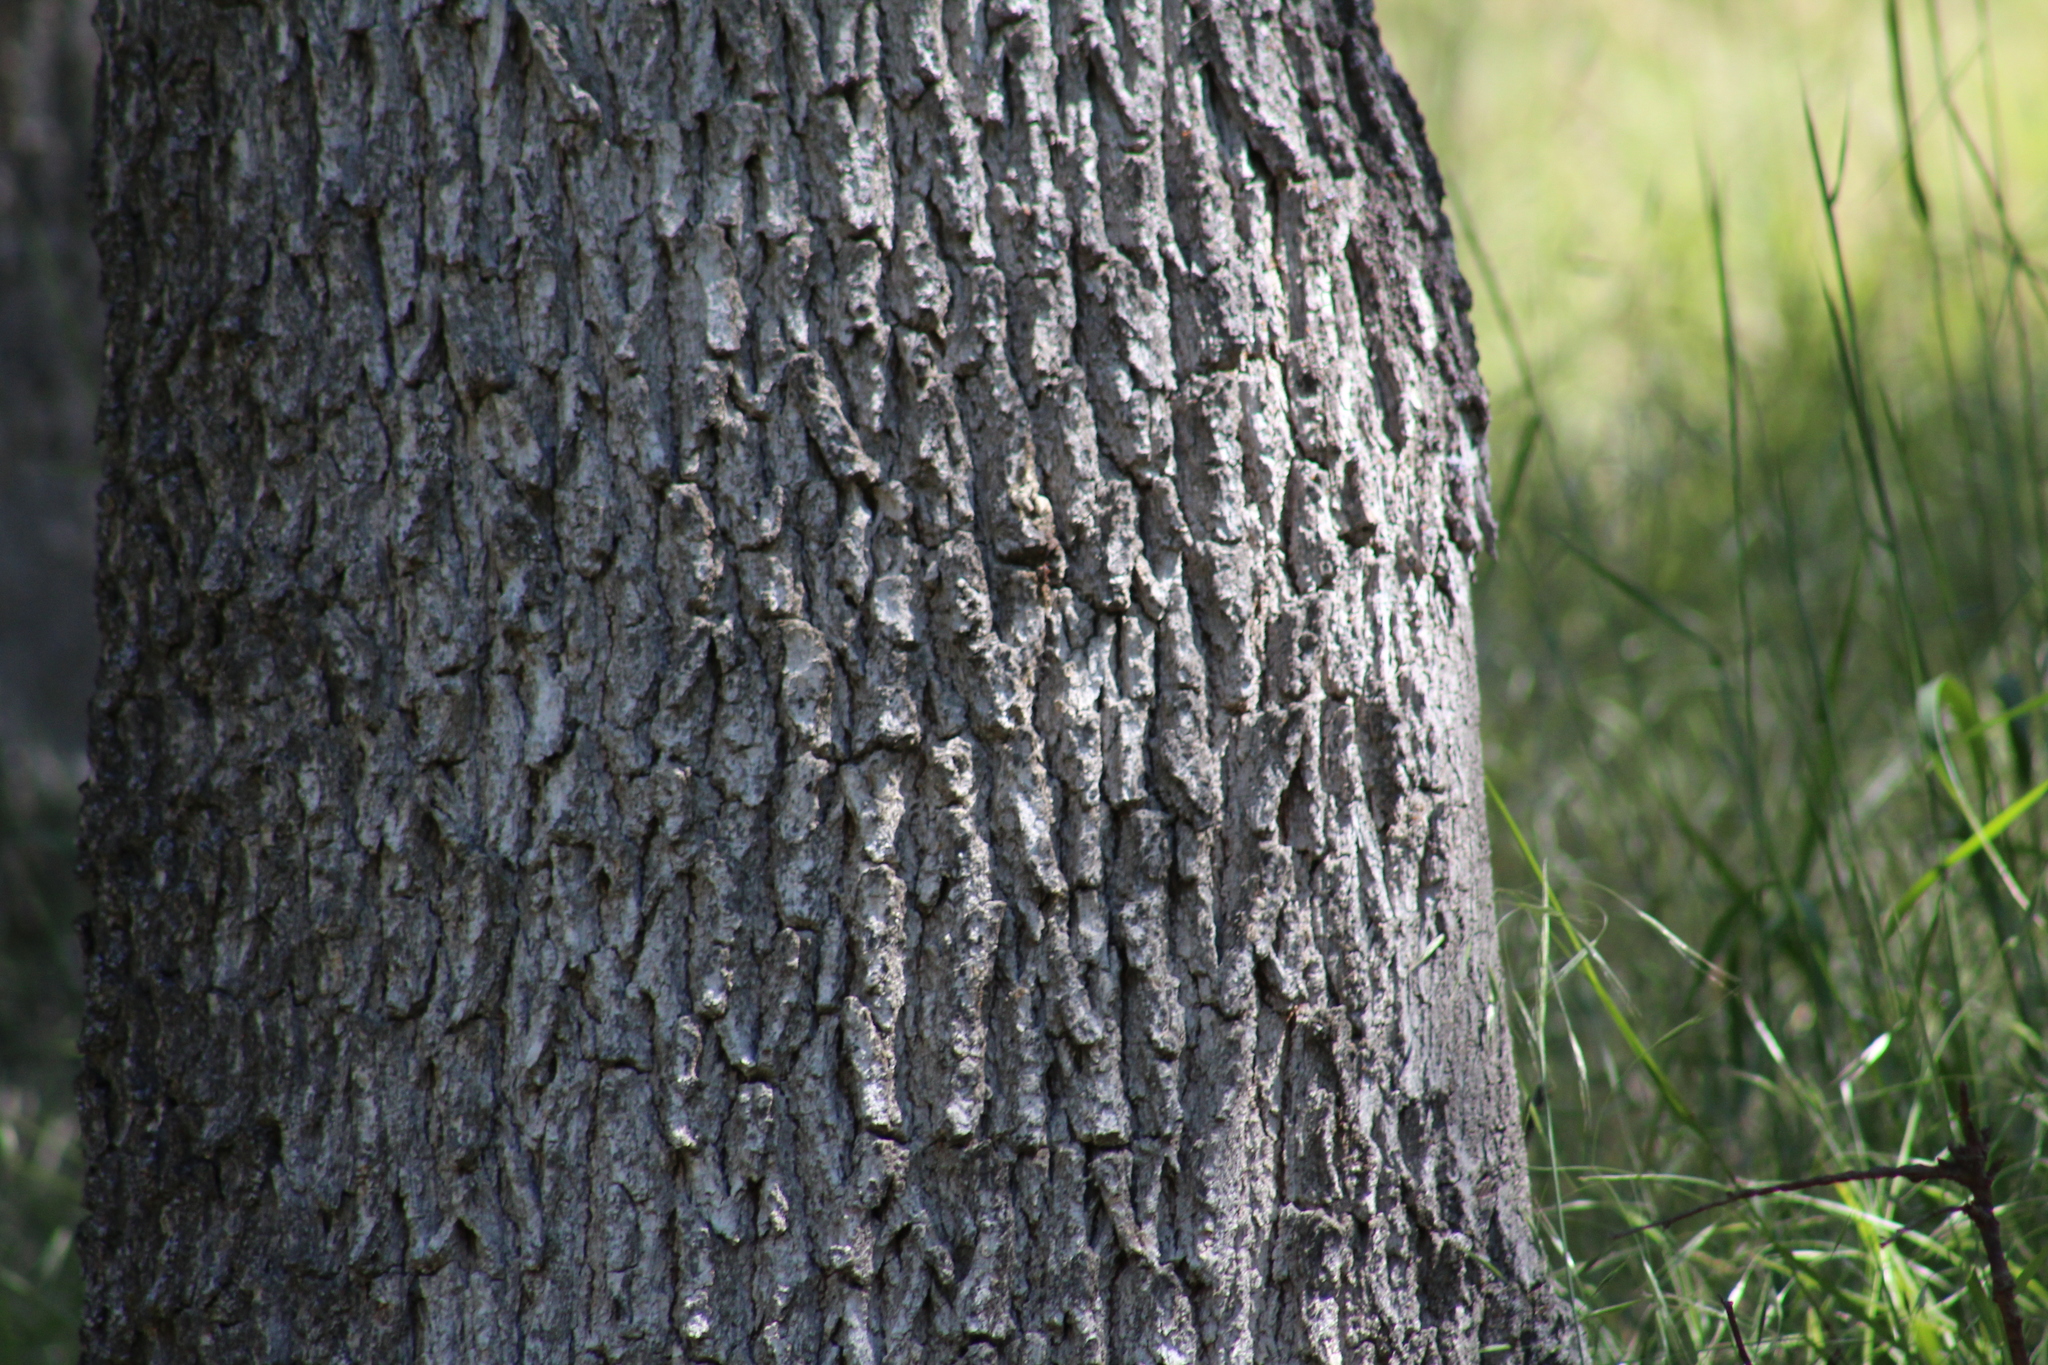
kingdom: Plantae
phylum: Tracheophyta
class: Magnoliopsida
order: Fagales
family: Fagaceae
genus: Quercus
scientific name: Quercus garryana
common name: Garry oak
